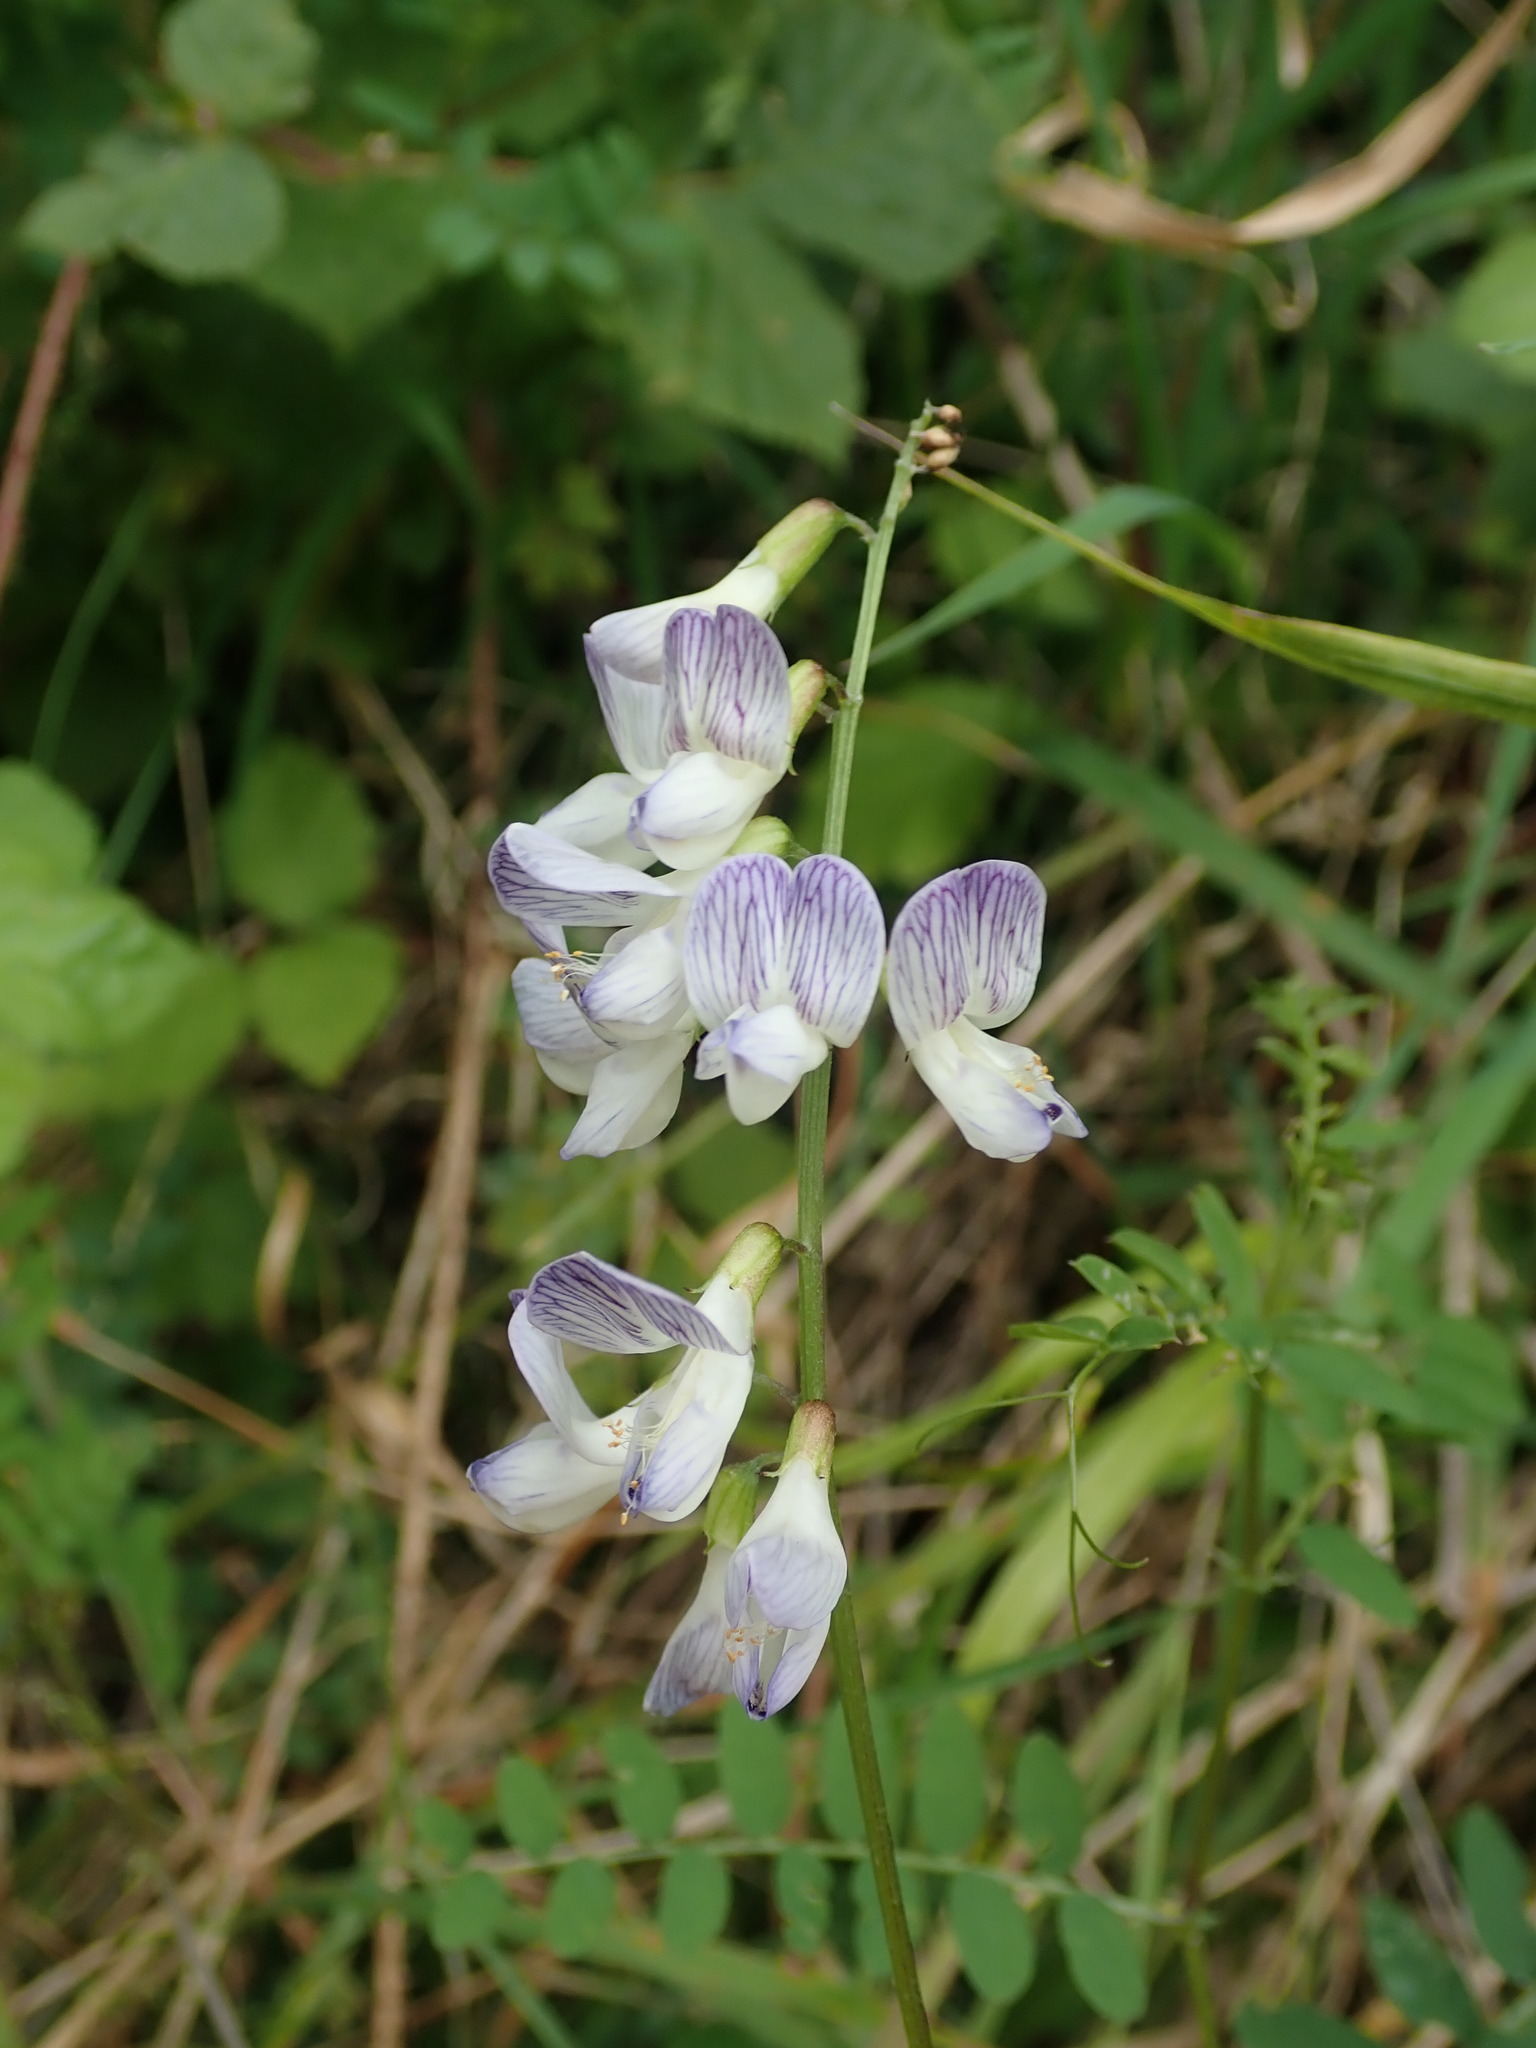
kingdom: Plantae
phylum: Tracheophyta
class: Magnoliopsida
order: Fabales
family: Fabaceae
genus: Vicia
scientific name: Vicia sylvatica
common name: Wood vetch
